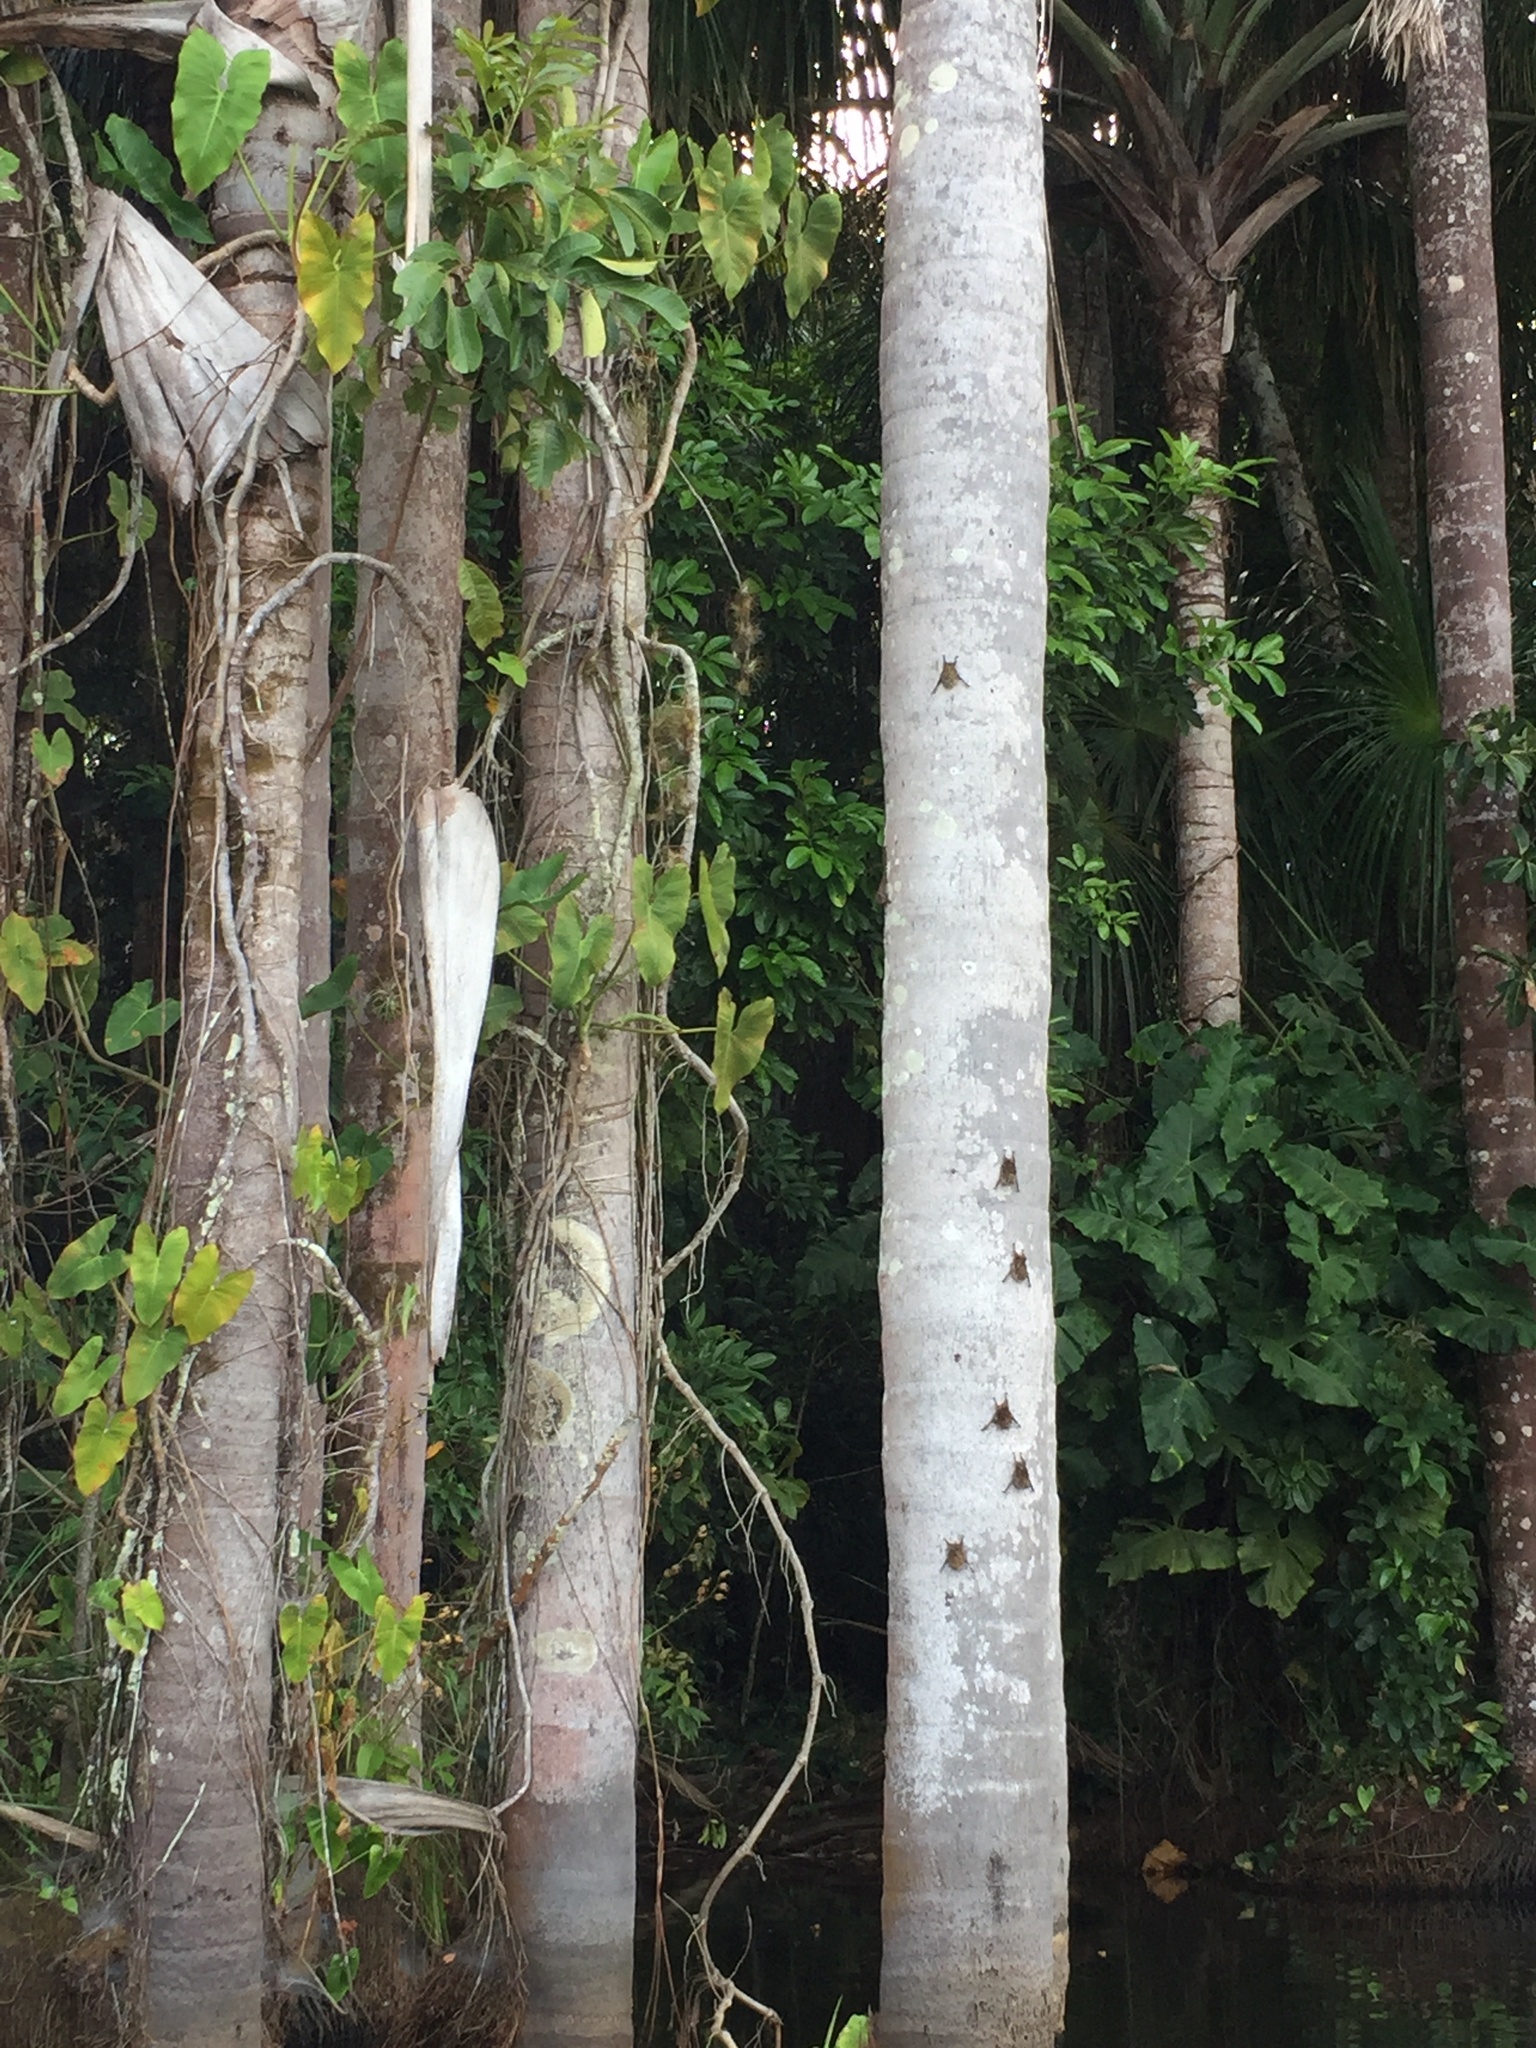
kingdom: Animalia
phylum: Chordata
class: Mammalia
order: Chiroptera
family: Emballonuridae
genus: Rhynchonycteris
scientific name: Rhynchonycteris naso
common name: Proboscis bat
